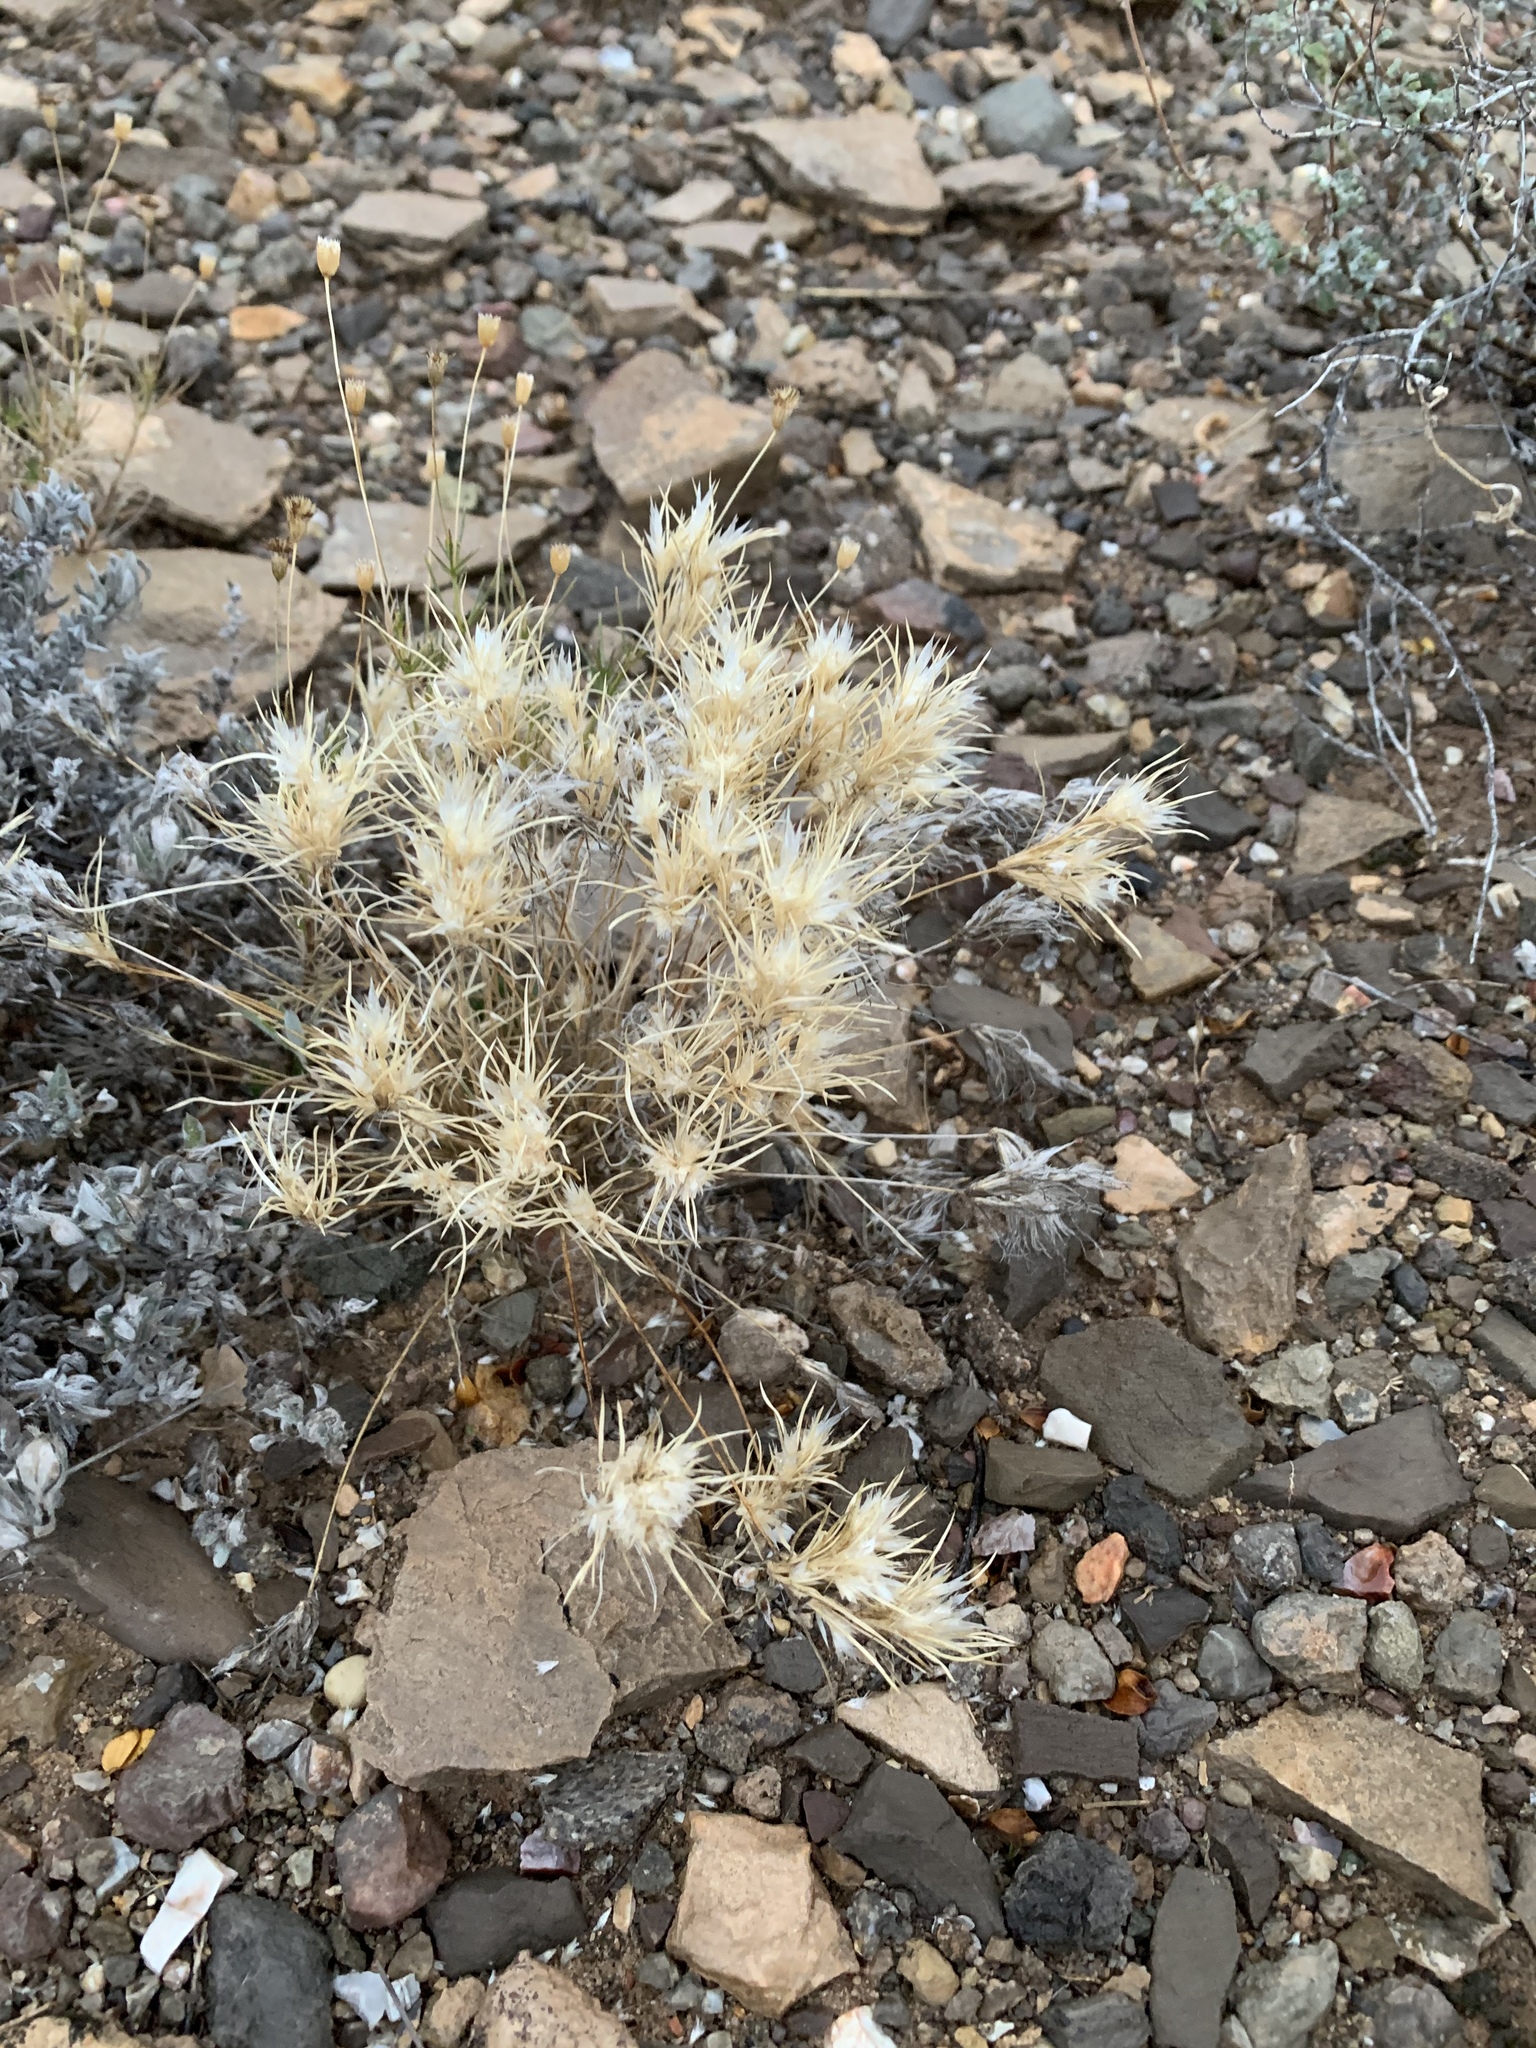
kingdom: Plantae
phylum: Tracheophyta
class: Liliopsida
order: Poales
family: Poaceae
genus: Dasyochloa
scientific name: Dasyochloa pulchella
